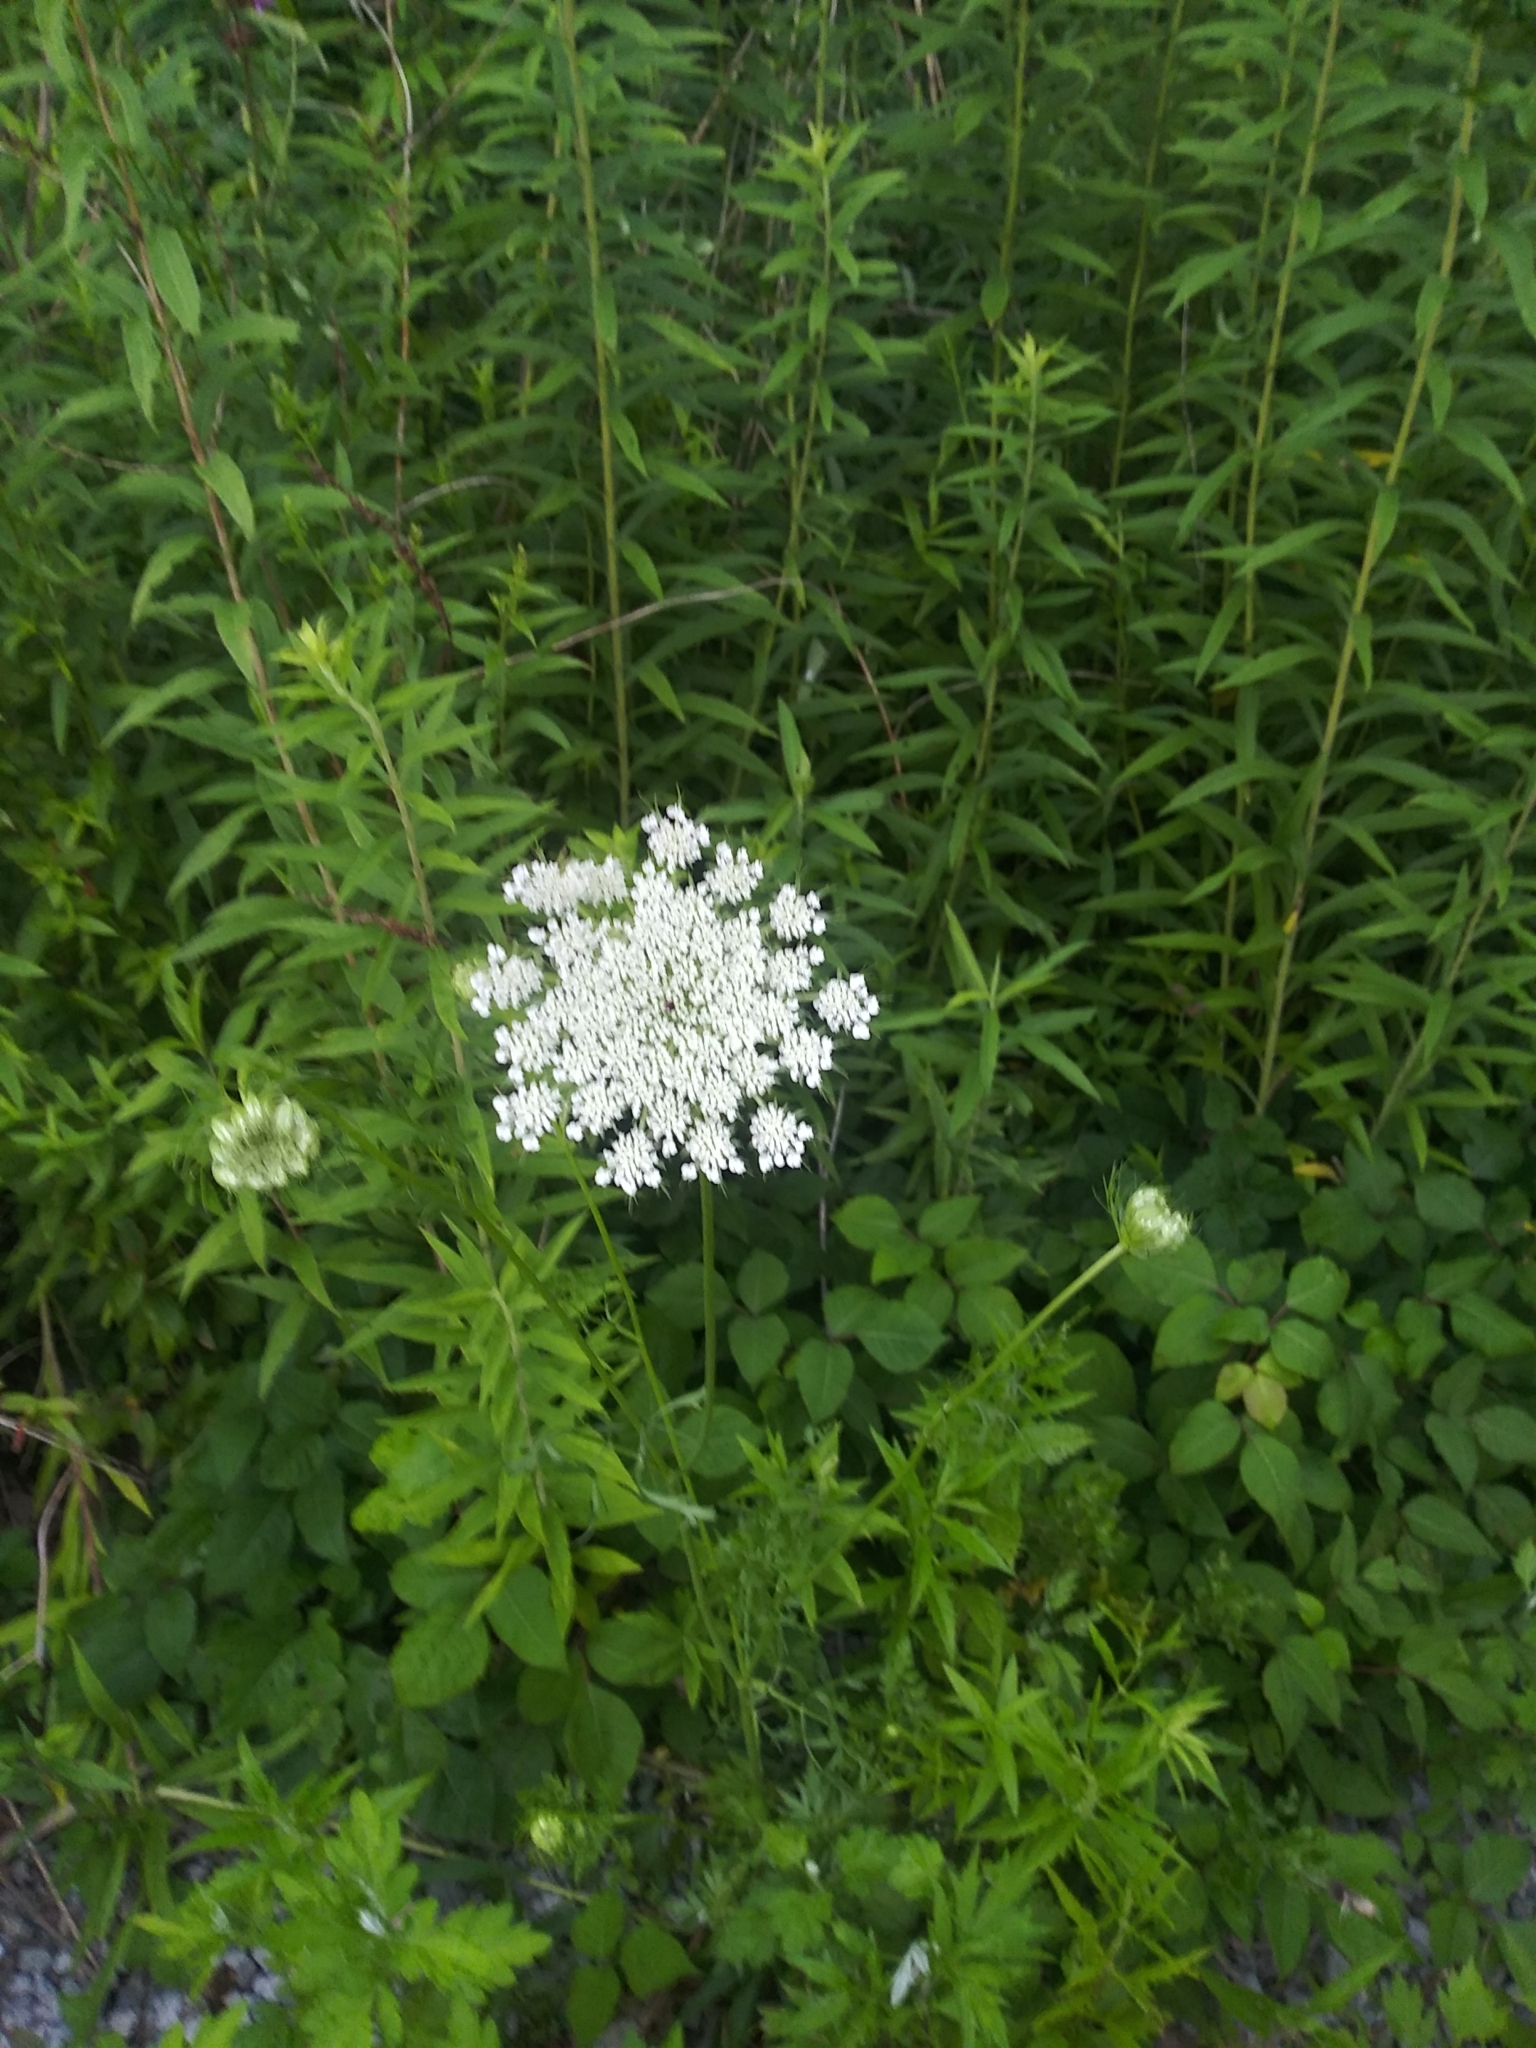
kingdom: Plantae
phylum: Tracheophyta
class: Magnoliopsida
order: Apiales
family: Apiaceae
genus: Daucus
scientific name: Daucus carota
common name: Wild carrot
